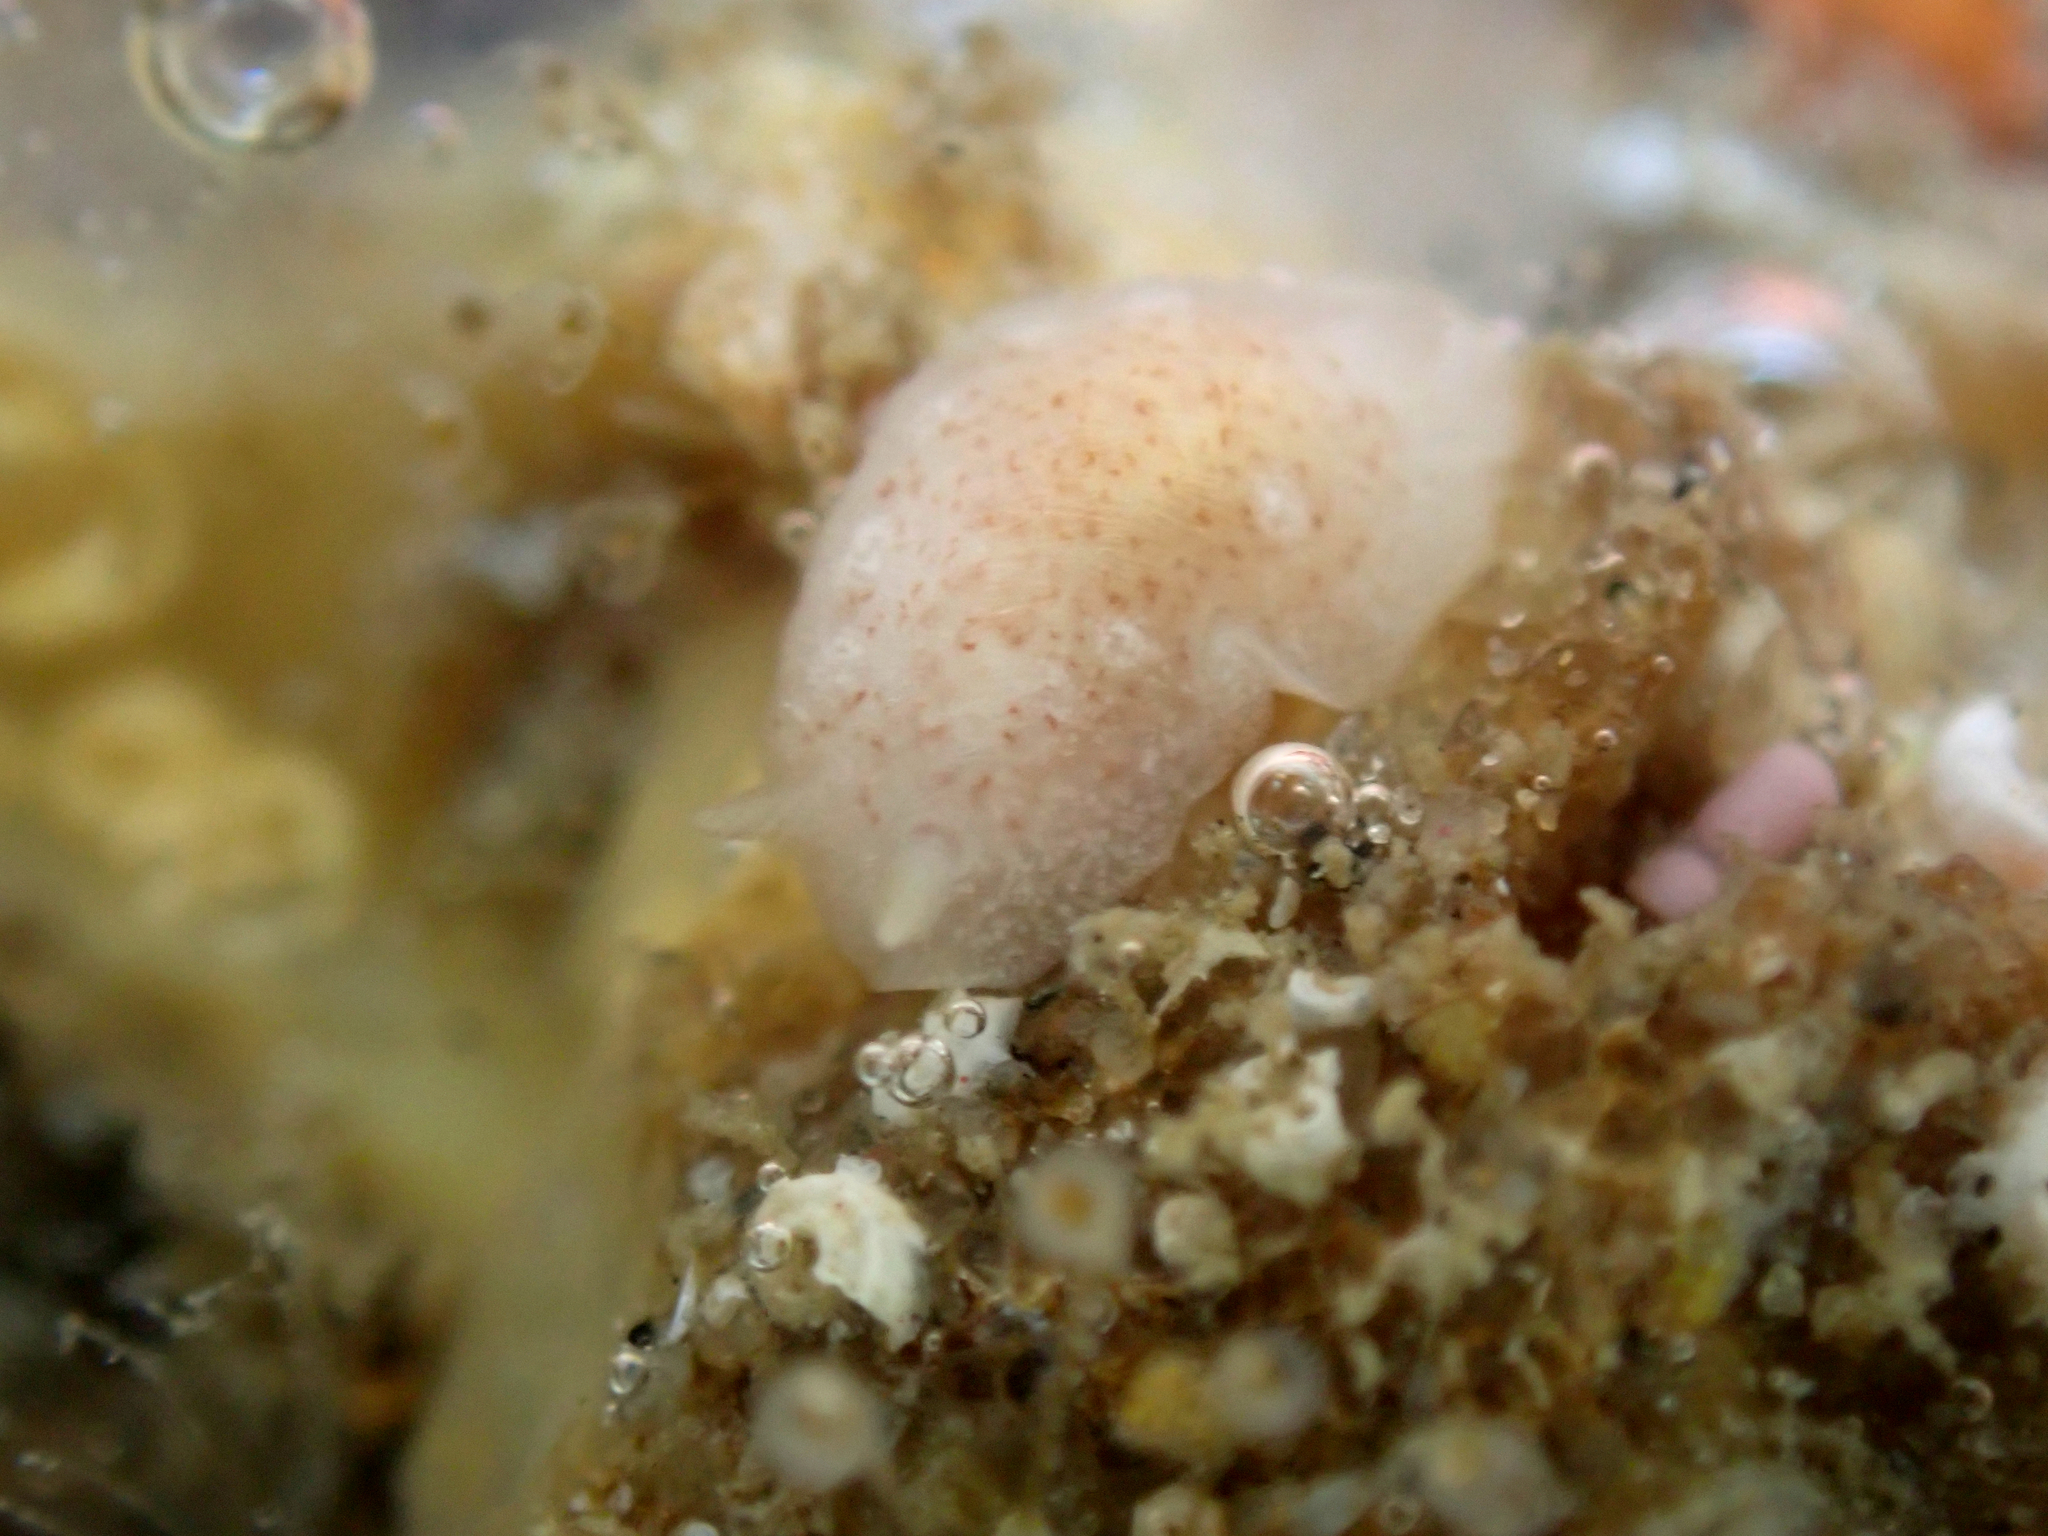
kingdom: Animalia
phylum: Mollusca
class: Gastropoda
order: Nudibranchia
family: Dendrodorididae
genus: Doriopsilla
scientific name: Doriopsilla rowena
